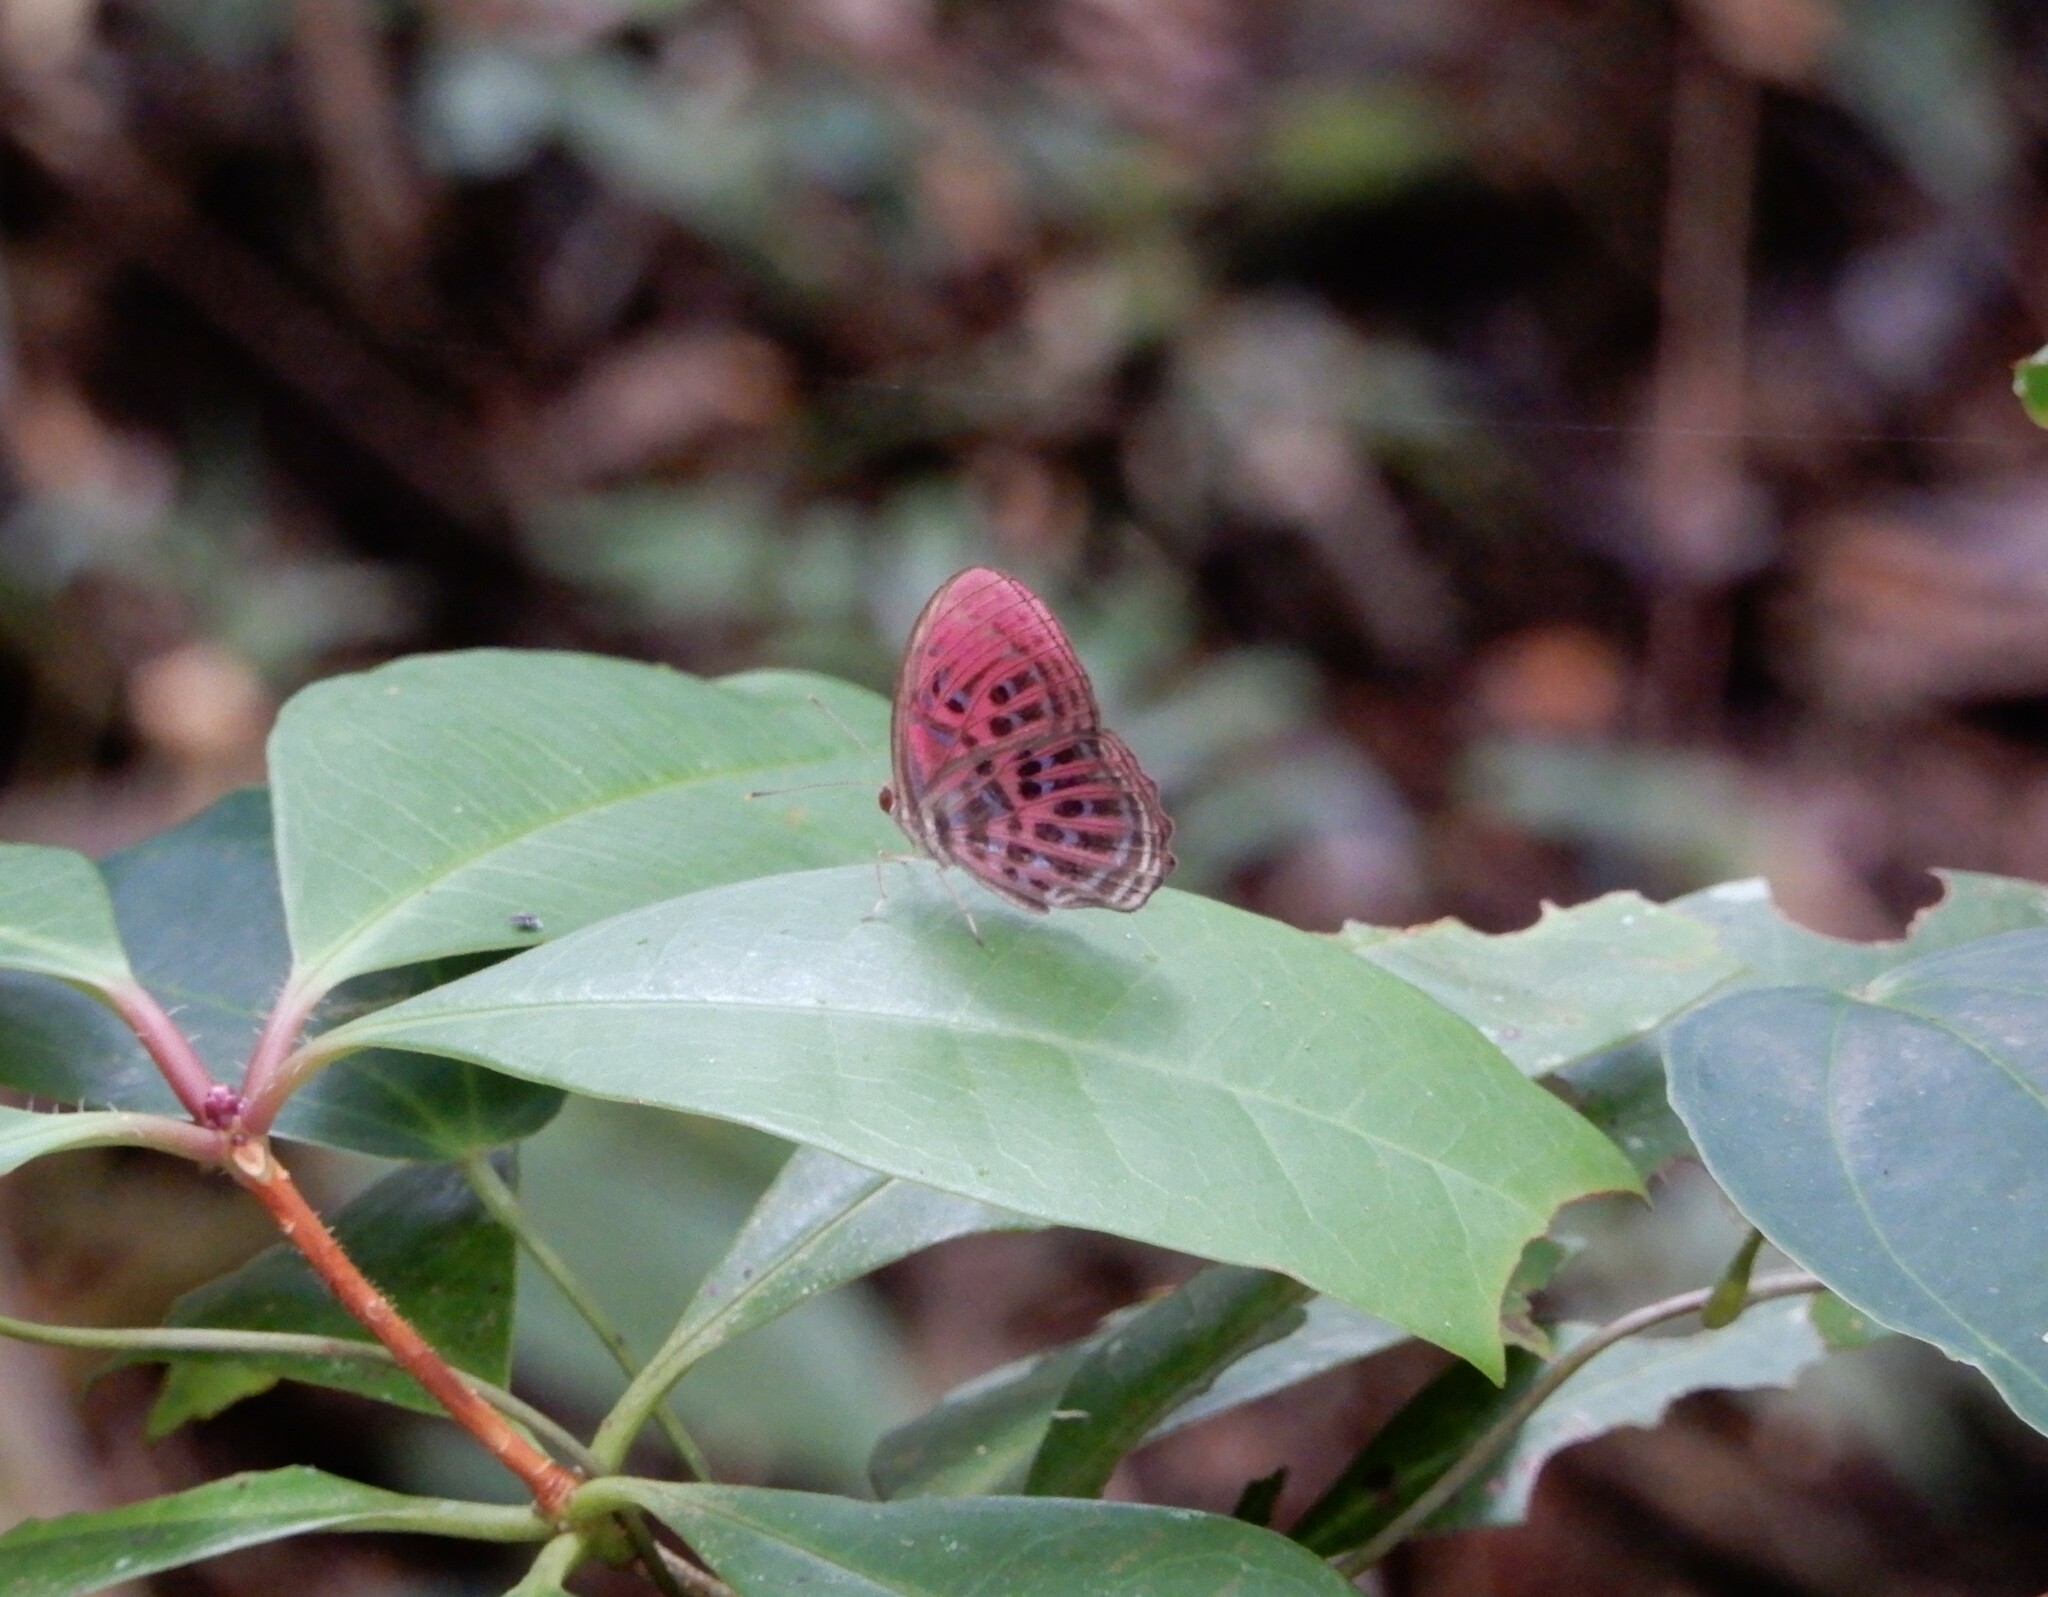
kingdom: Animalia
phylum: Arthropoda
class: Insecta
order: Lepidoptera
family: Riodinidae
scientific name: Riodinidae
